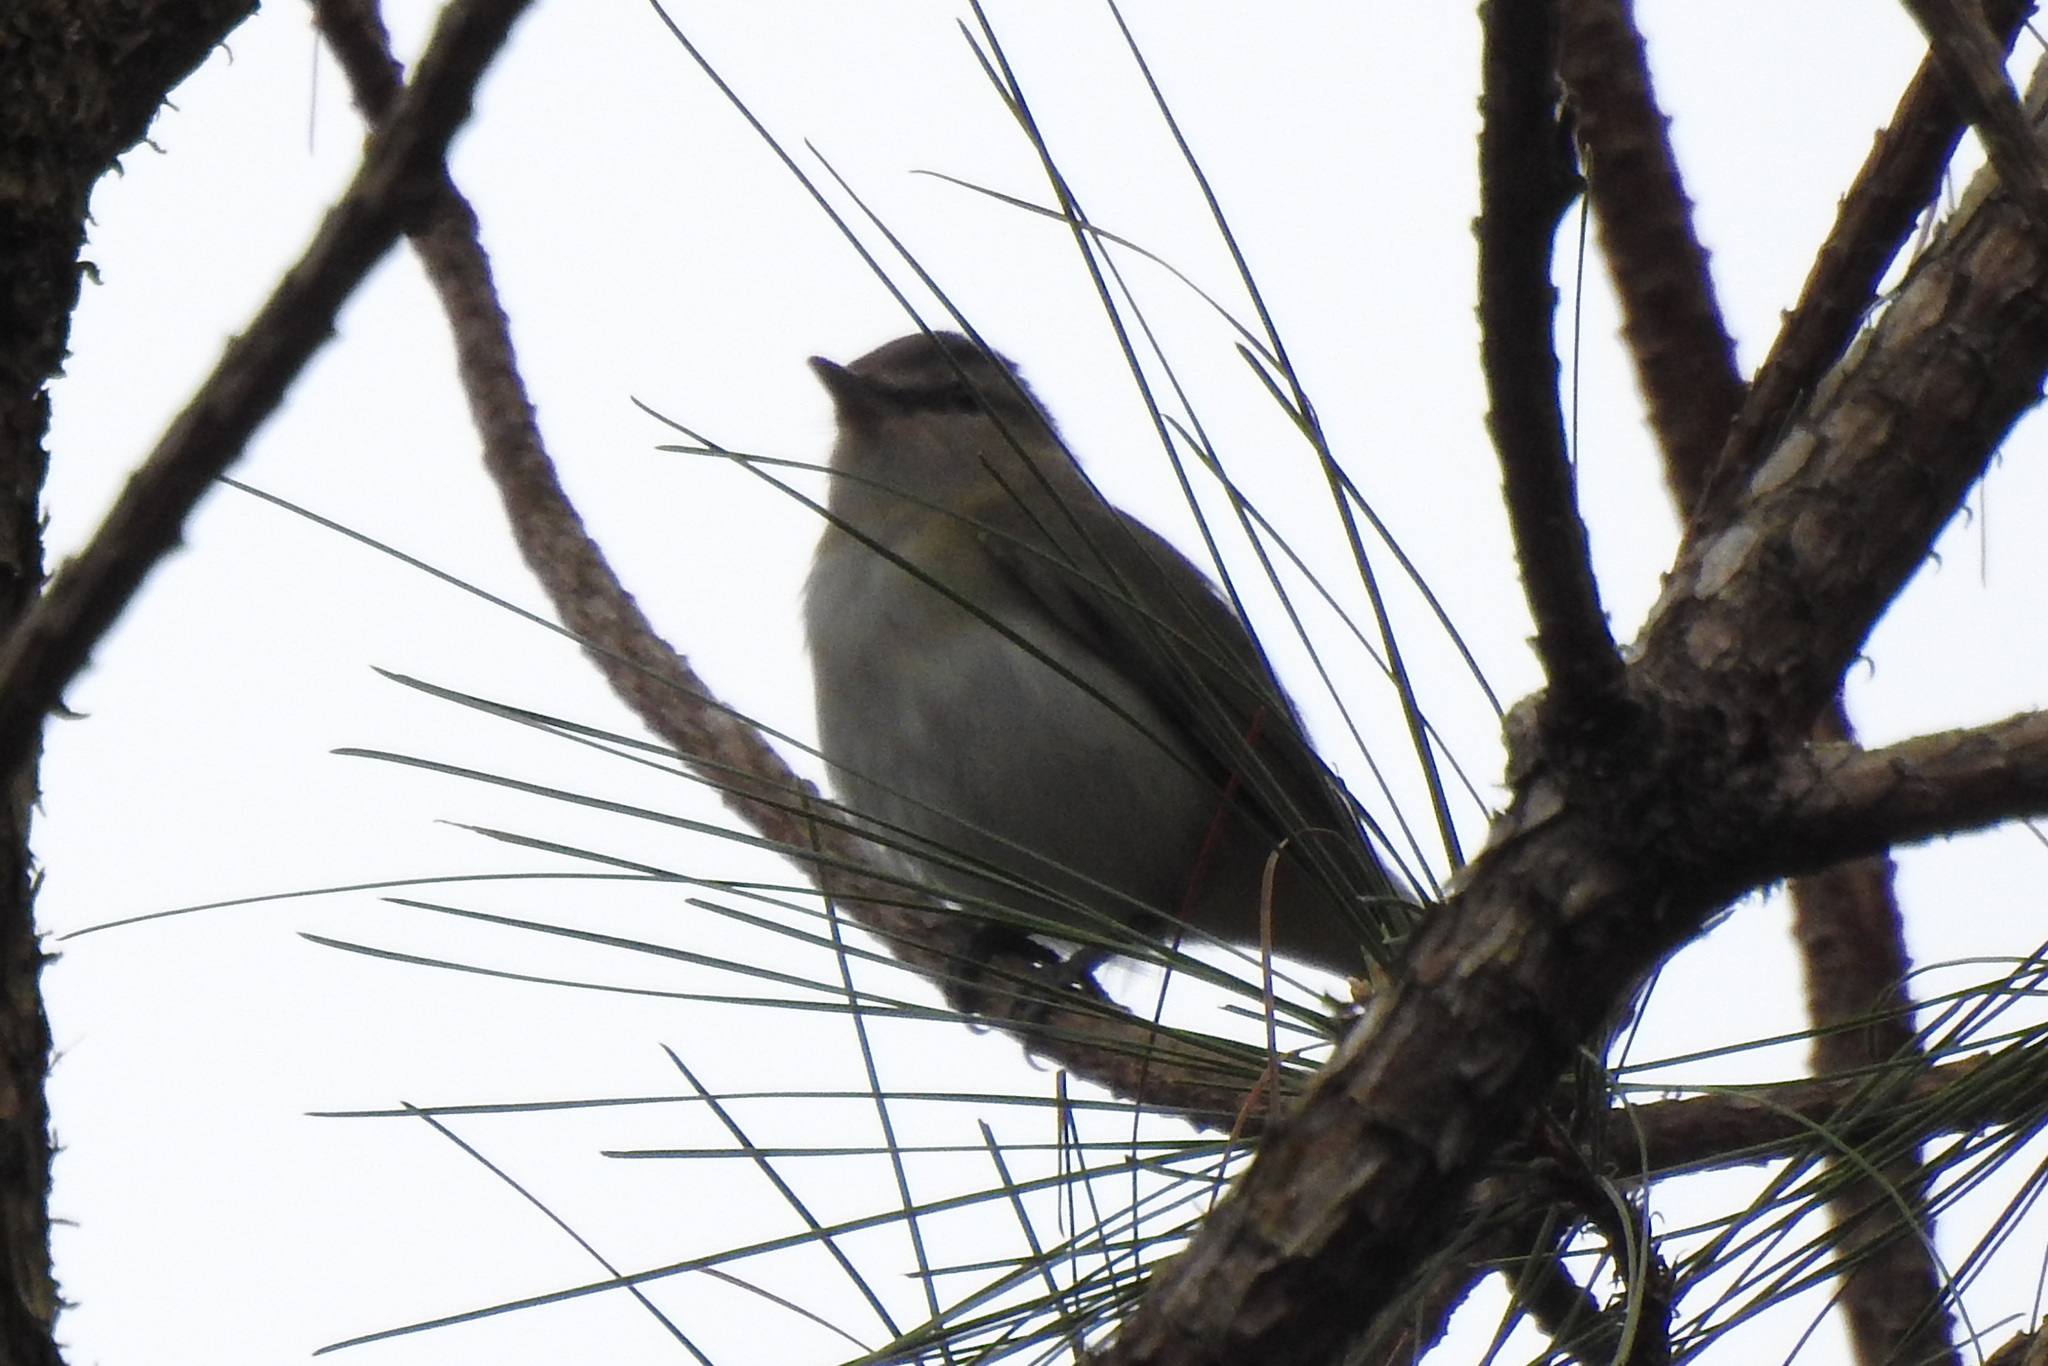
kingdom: Animalia
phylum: Chordata
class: Aves
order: Passeriformes
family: Vireonidae
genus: Vireo
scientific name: Vireo olivaceus
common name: Red-eyed vireo
